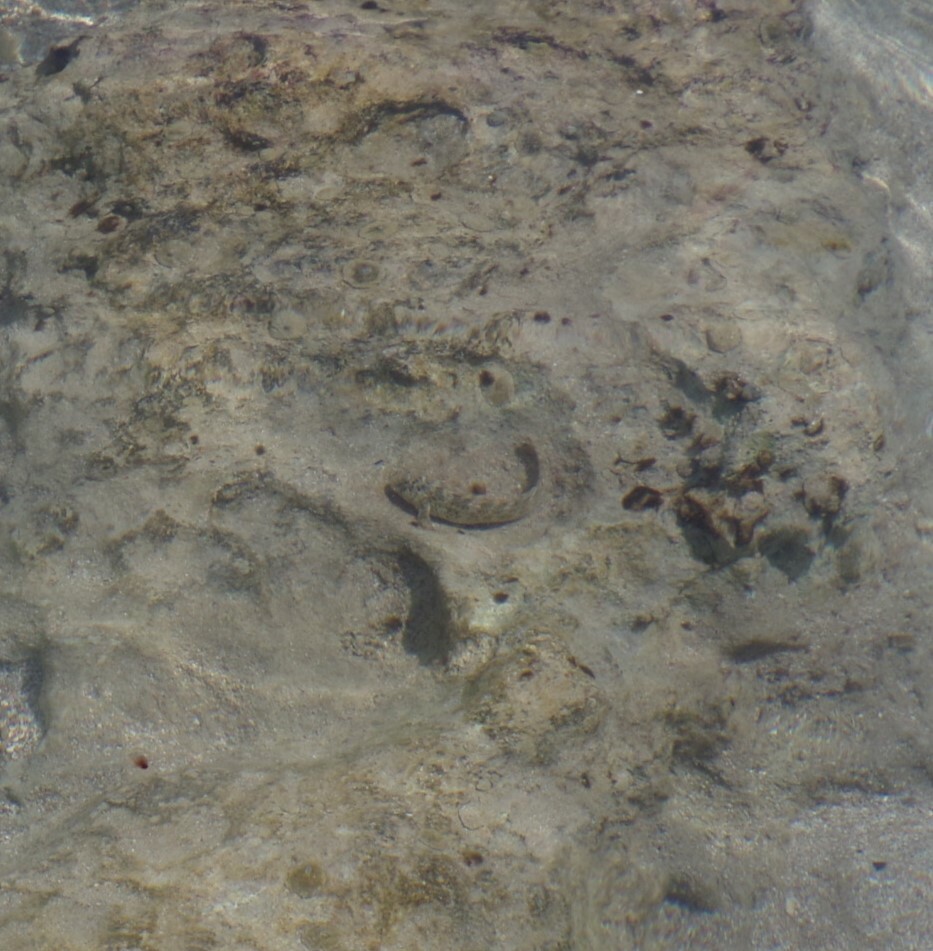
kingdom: Animalia
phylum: Chordata
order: Perciformes
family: Blenniidae
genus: Parablennius
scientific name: Parablennius sanguinolentus
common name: Black sea blenny
